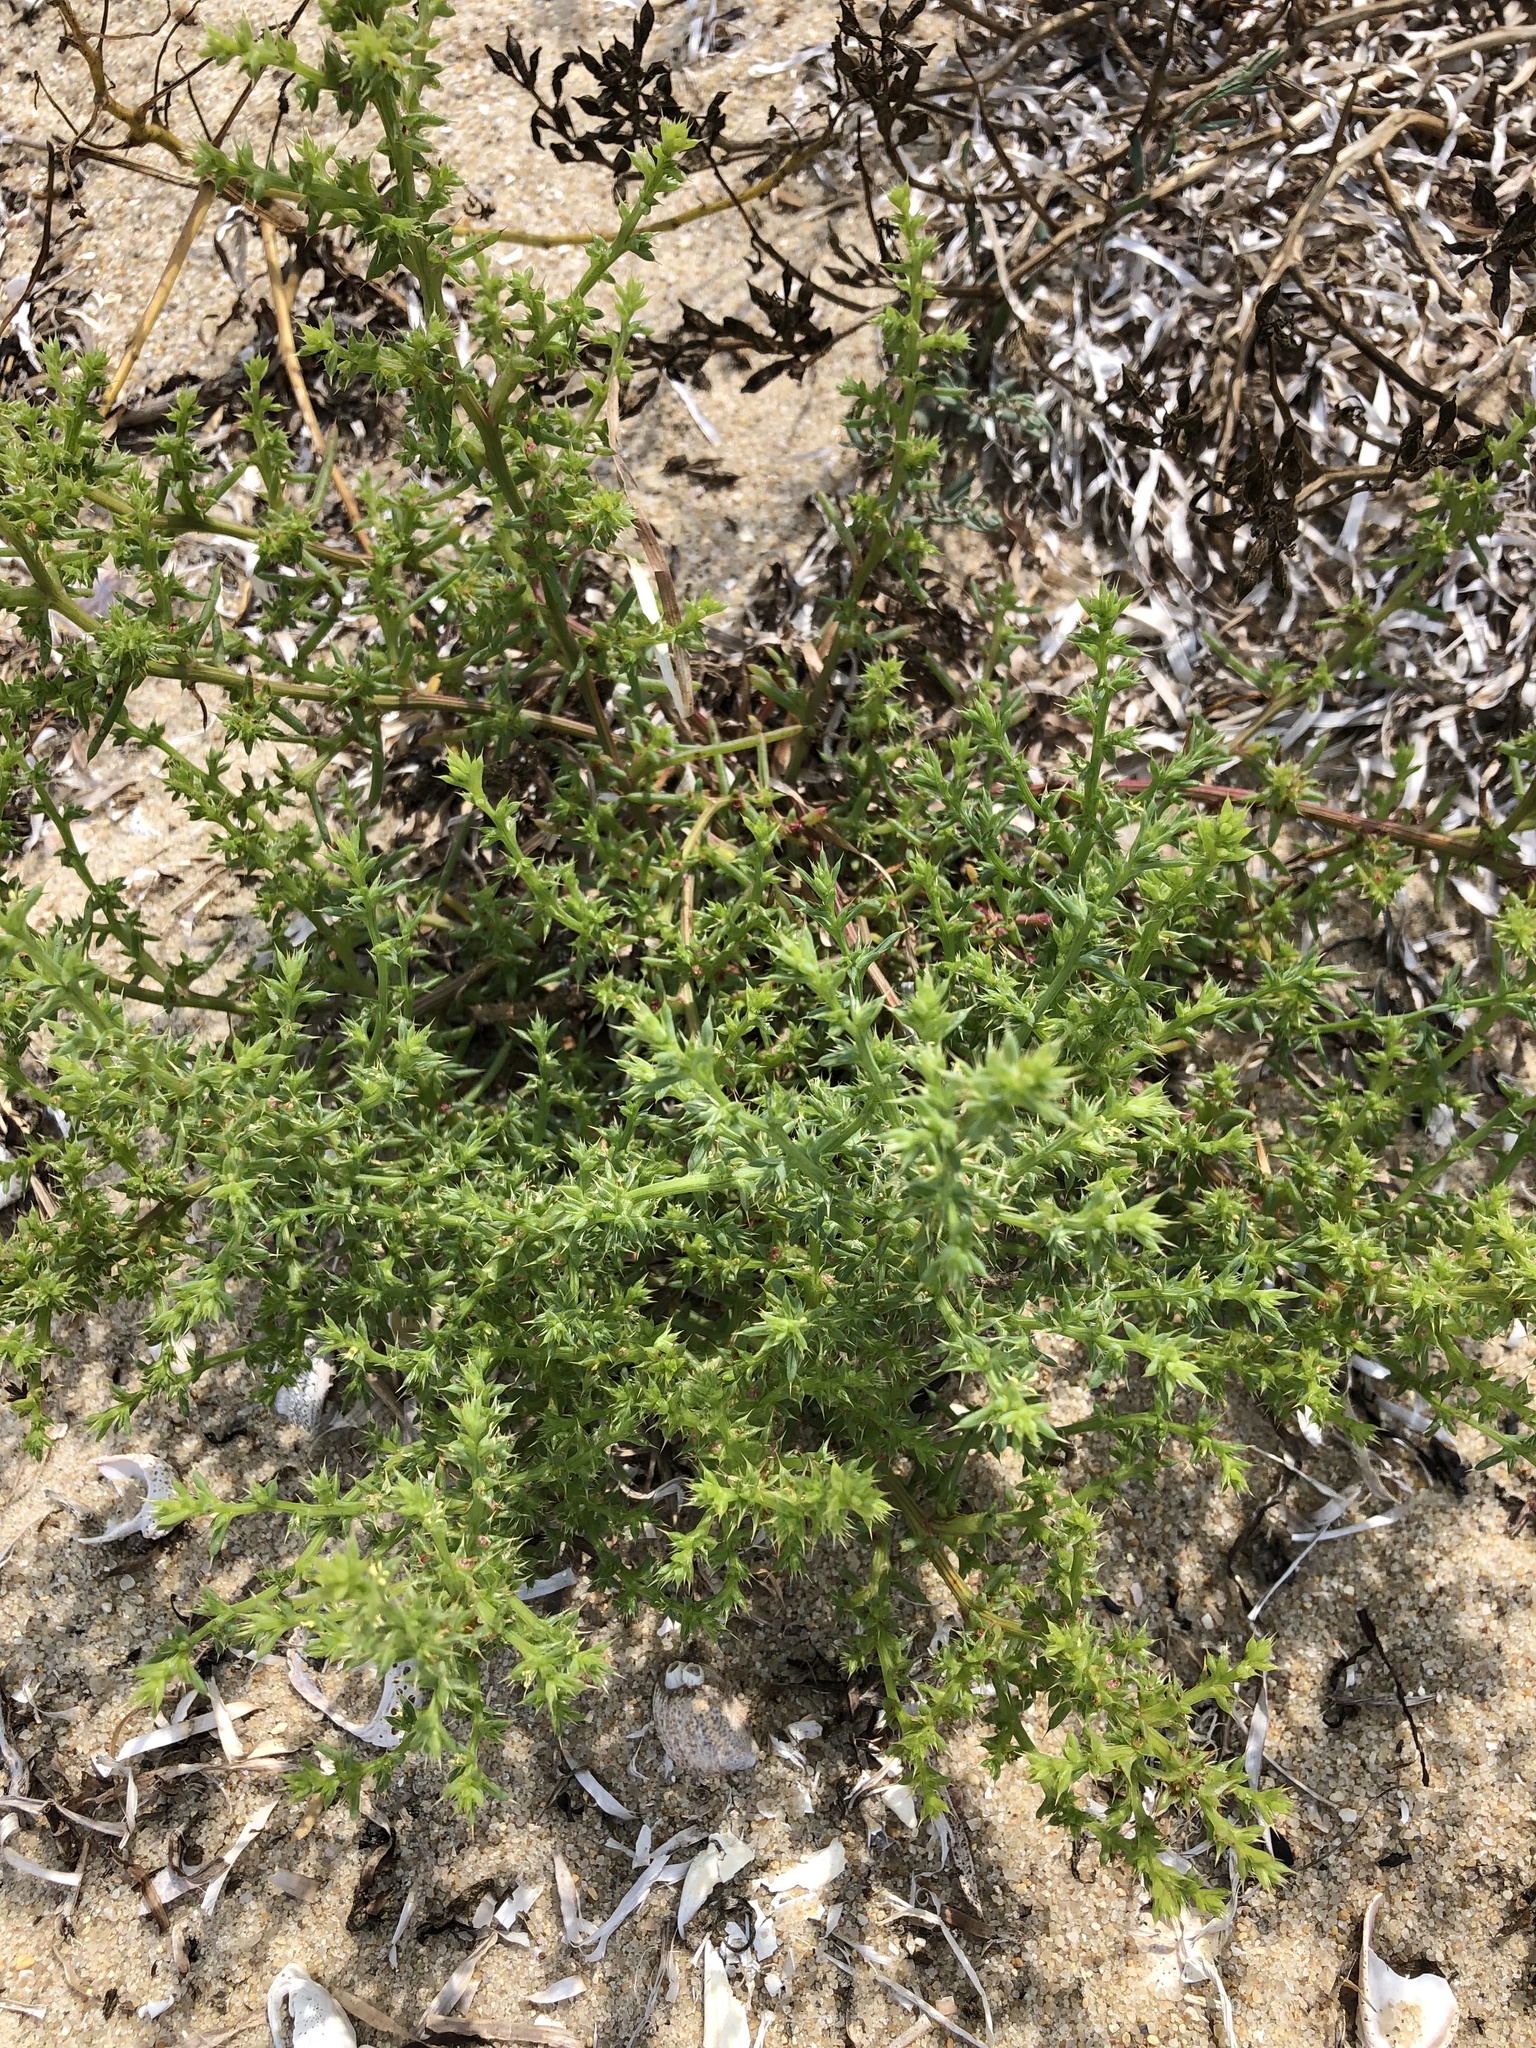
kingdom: Plantae
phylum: Tracheophyta
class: Magnoliopsida
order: Caryophyllales
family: Amaranthaceae
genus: Salsola
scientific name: Salsola kali
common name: Saltwort
